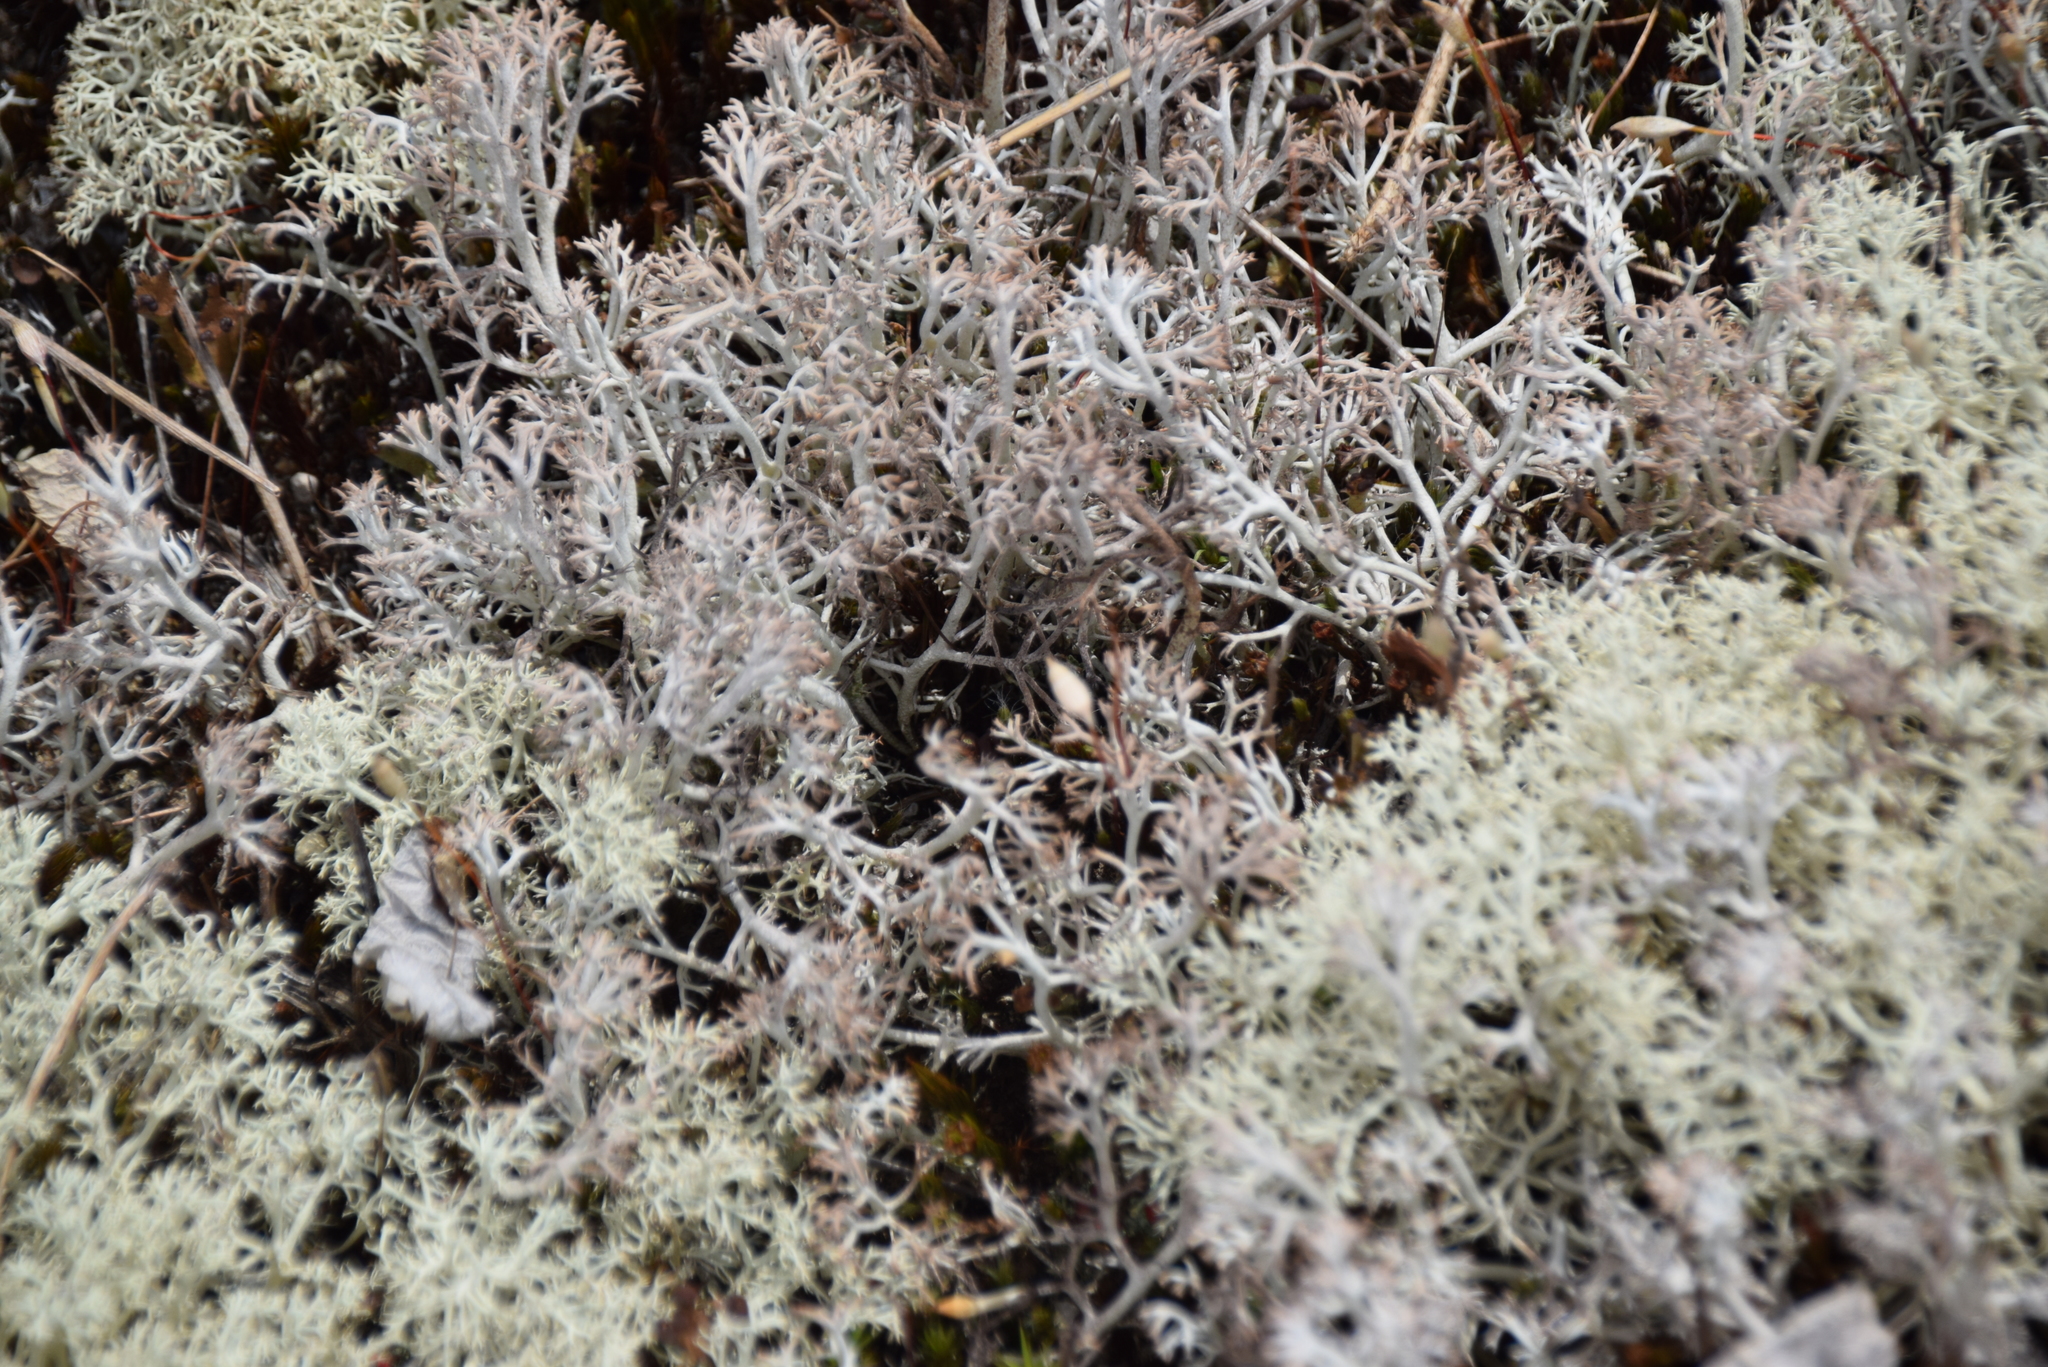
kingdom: Fungi
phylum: Ascomycota
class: Lecanoromycetes
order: Lecanorales
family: Cladoniaceae
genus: Cladonia
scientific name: Cladonia rangiferina
